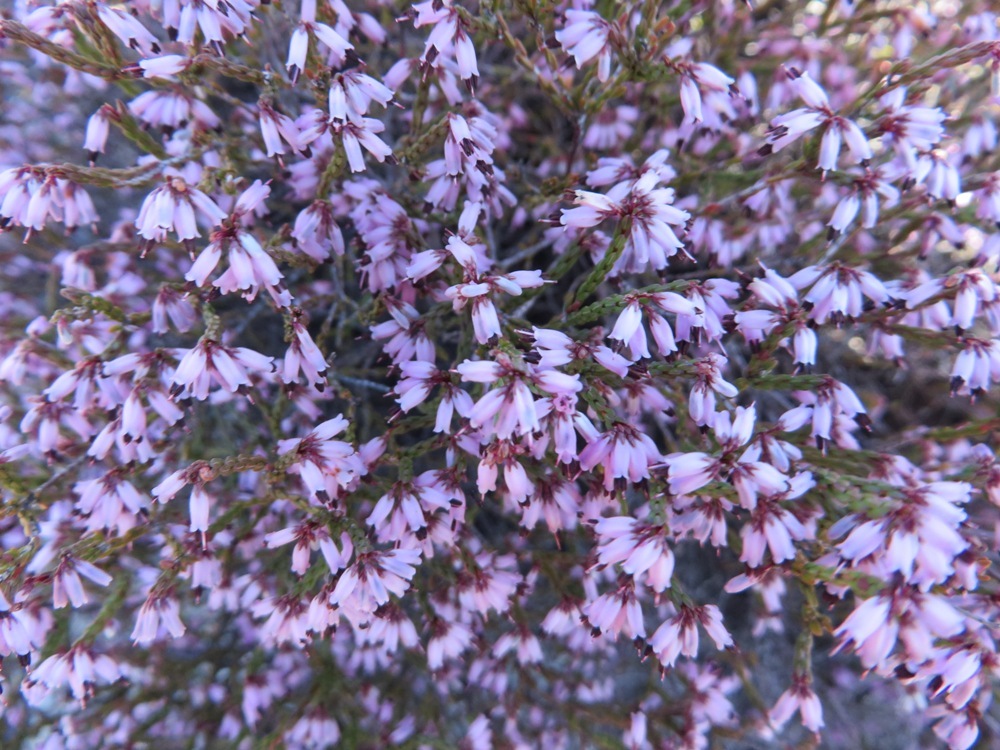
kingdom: Plantae
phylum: Tracheophyta
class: Magnoliopsida
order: Ericales
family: Ericaceae
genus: Erica
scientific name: Erica equisetifolia
